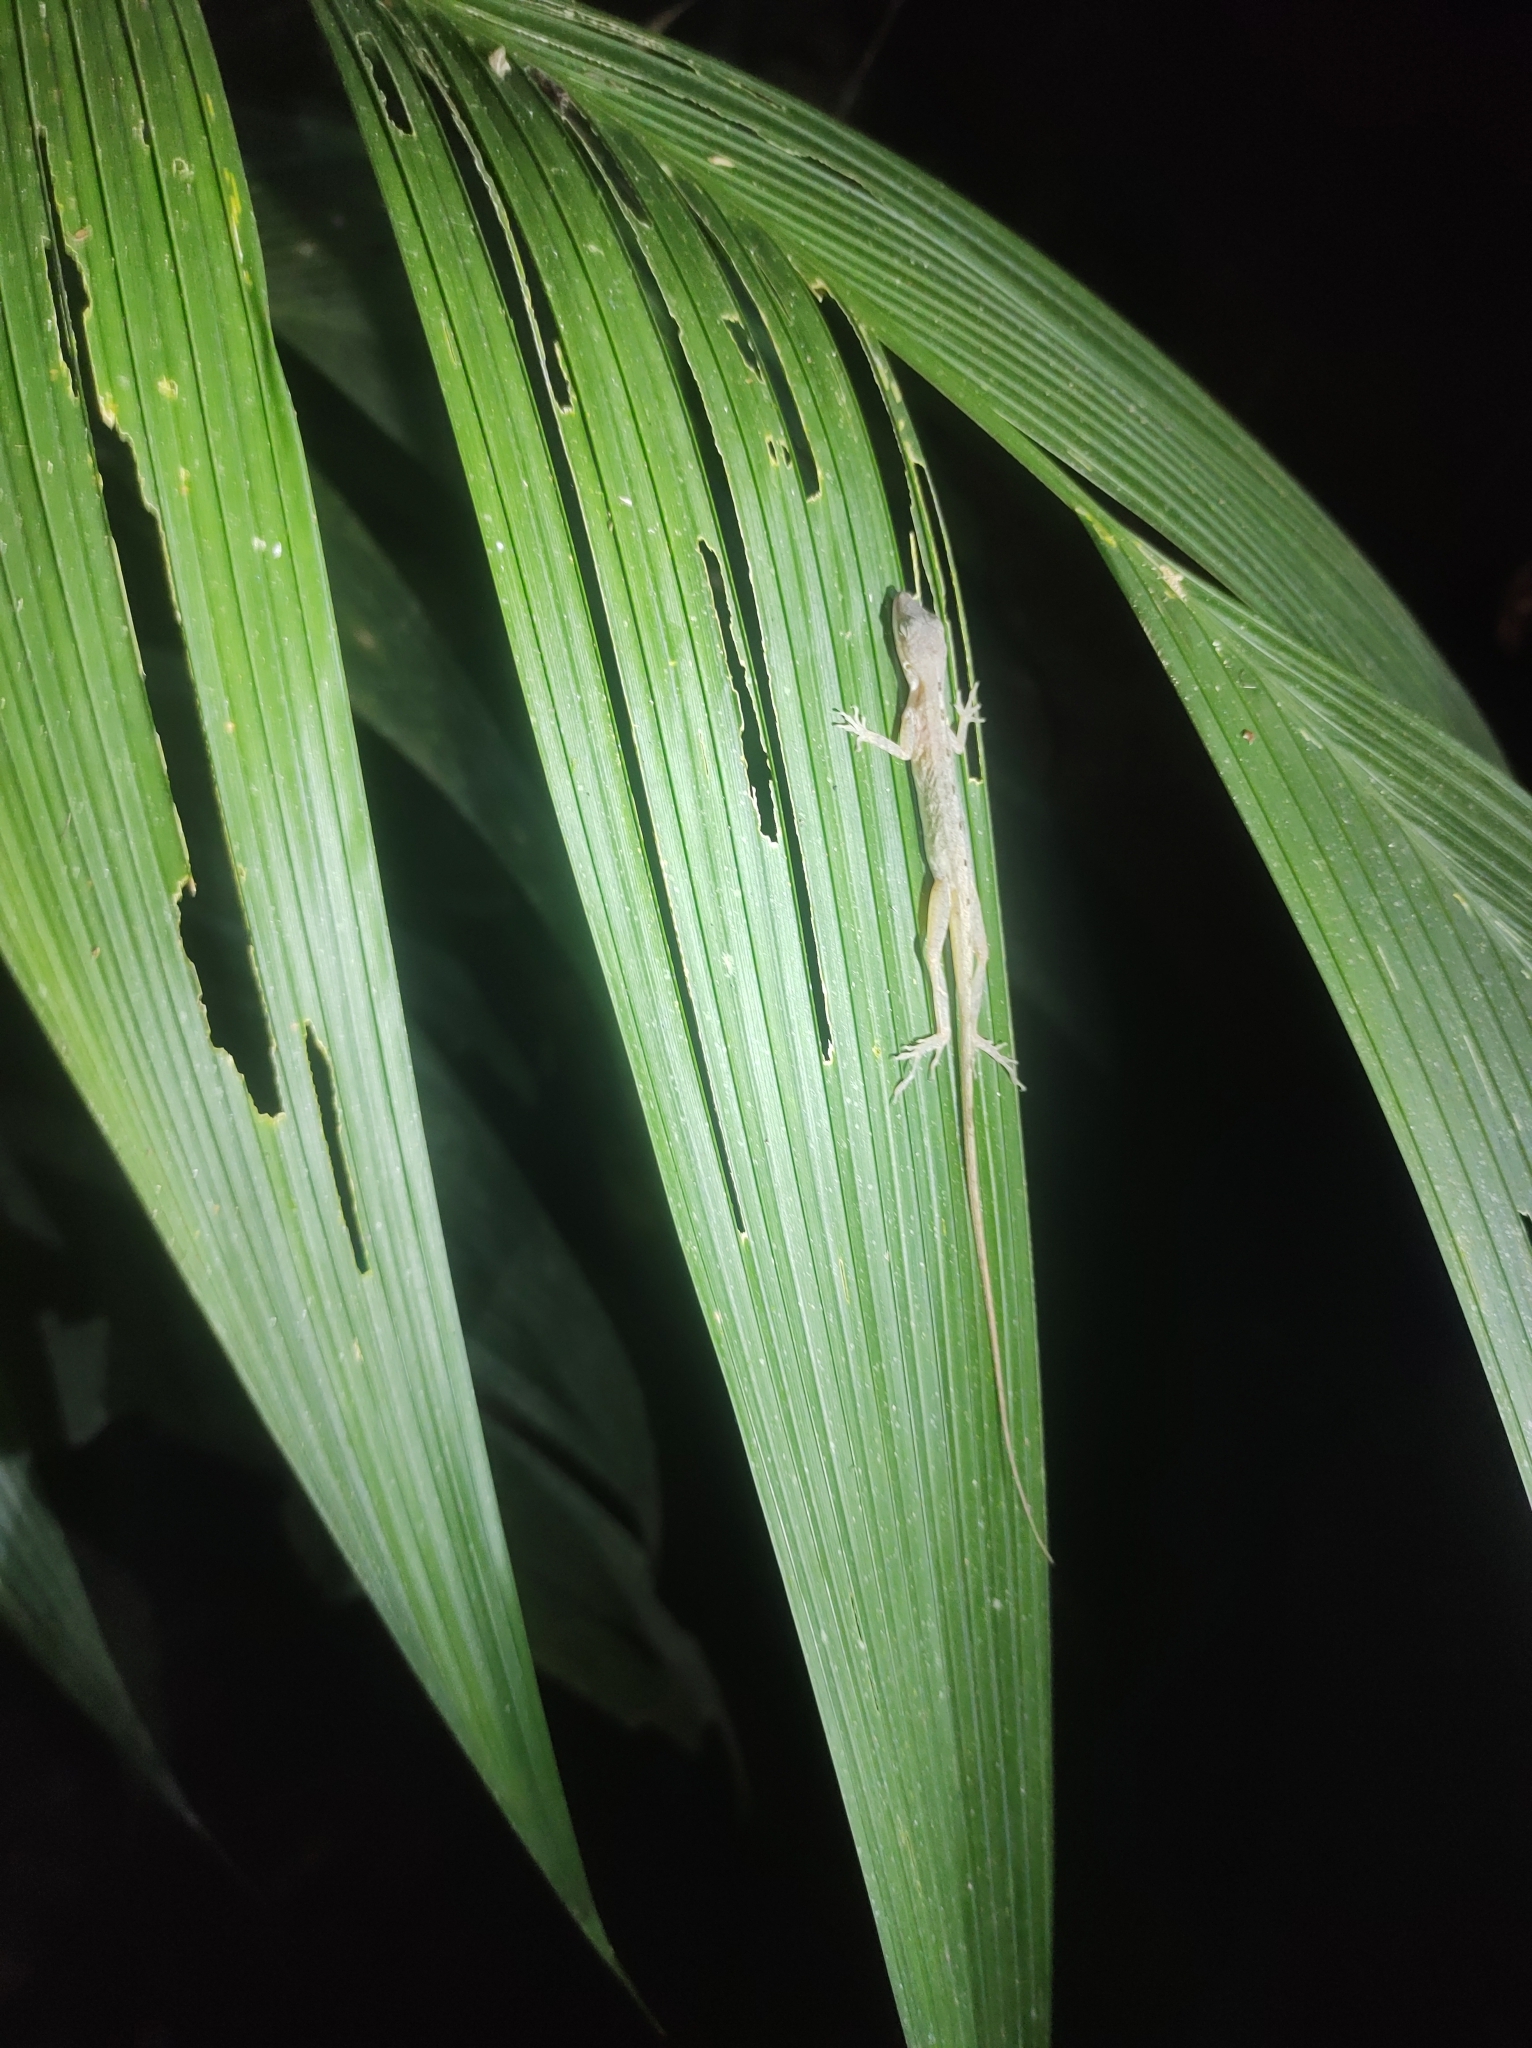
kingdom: Animalia
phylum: Chordata
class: Squamata
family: Dactyloidae
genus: Anolis
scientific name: Anolis limifrons
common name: Border anole
